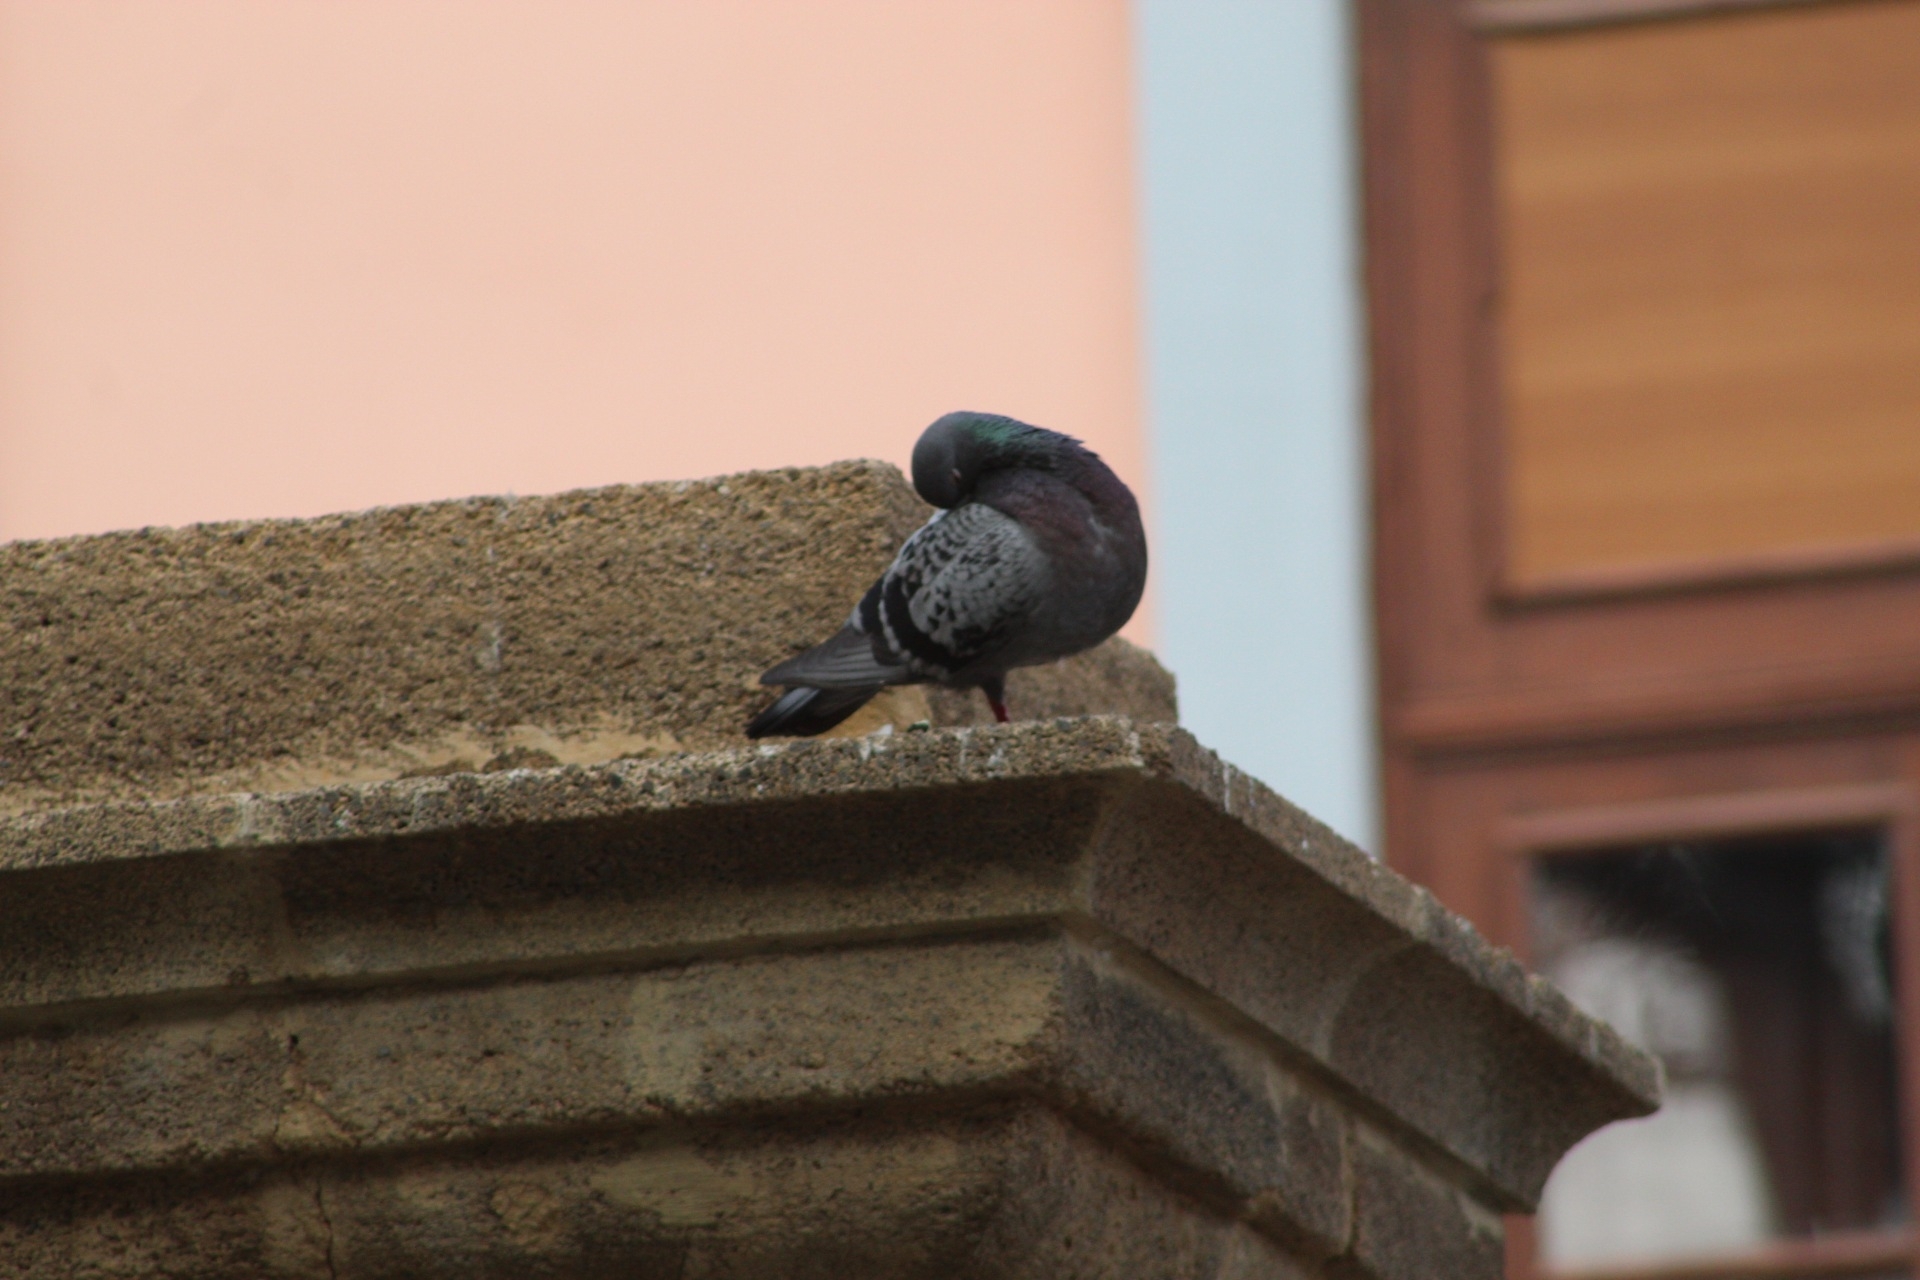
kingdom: Animalia
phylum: Chordata
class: Aves
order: Columbiformes
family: Columbidae
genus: Columba
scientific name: Columba livia
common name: Rock pigeon
